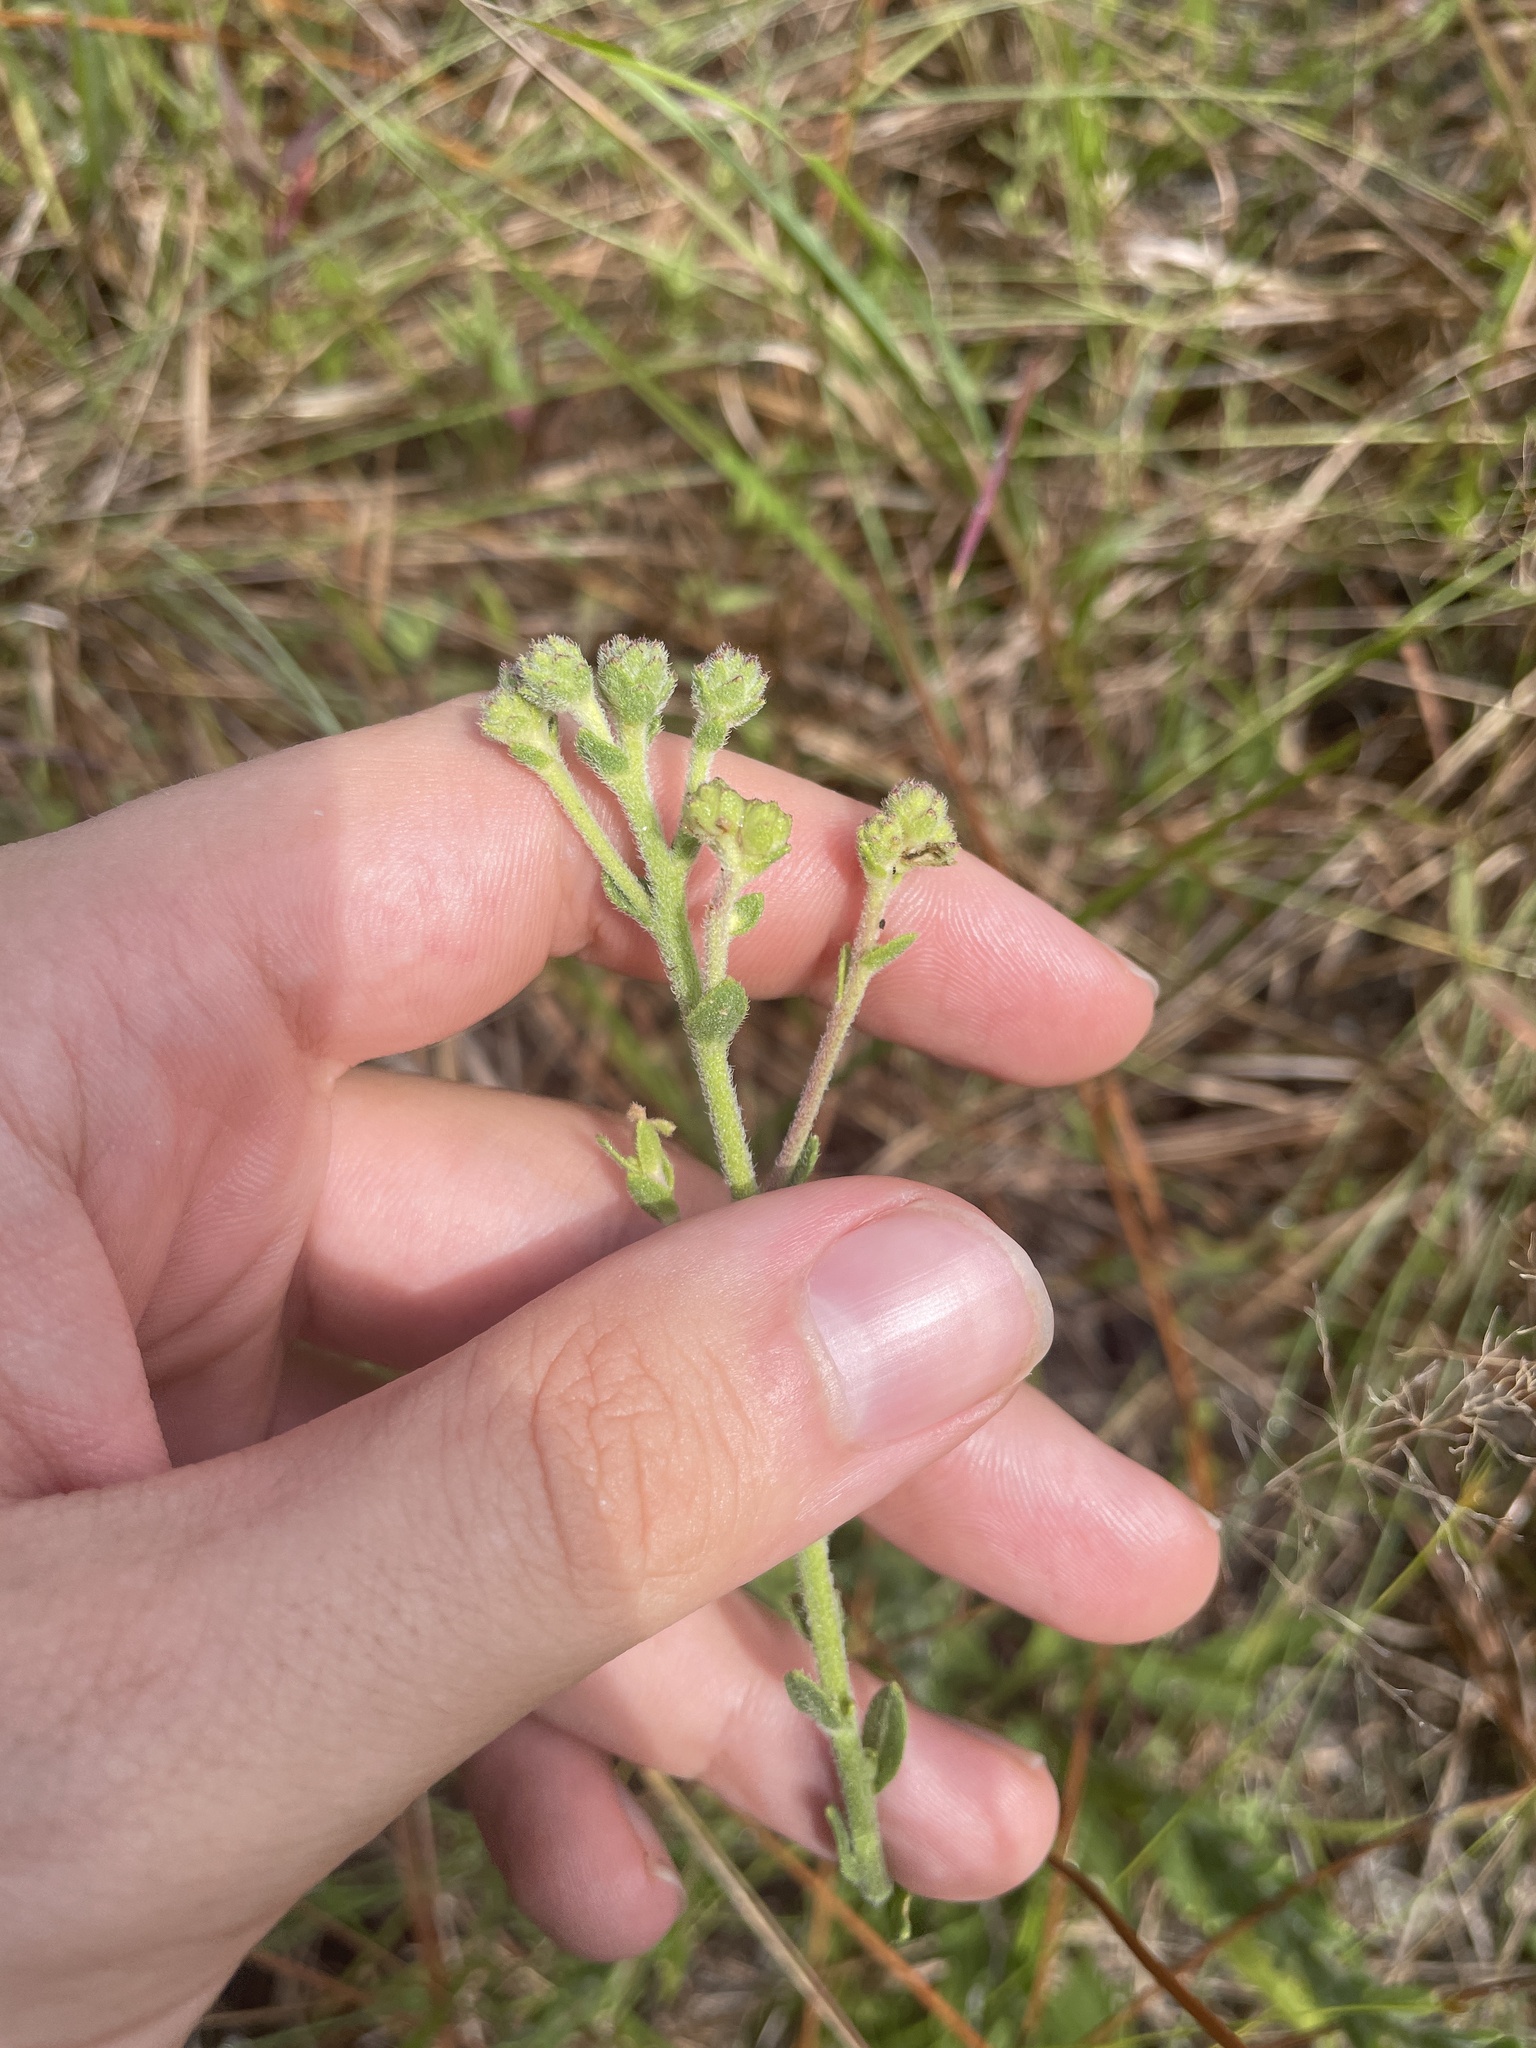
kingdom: Plantae
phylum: Tracheophyta
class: Magnoliopsida
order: Asterales
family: Asteraceae
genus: Carphephorus
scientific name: Carphephorus tomentosus
